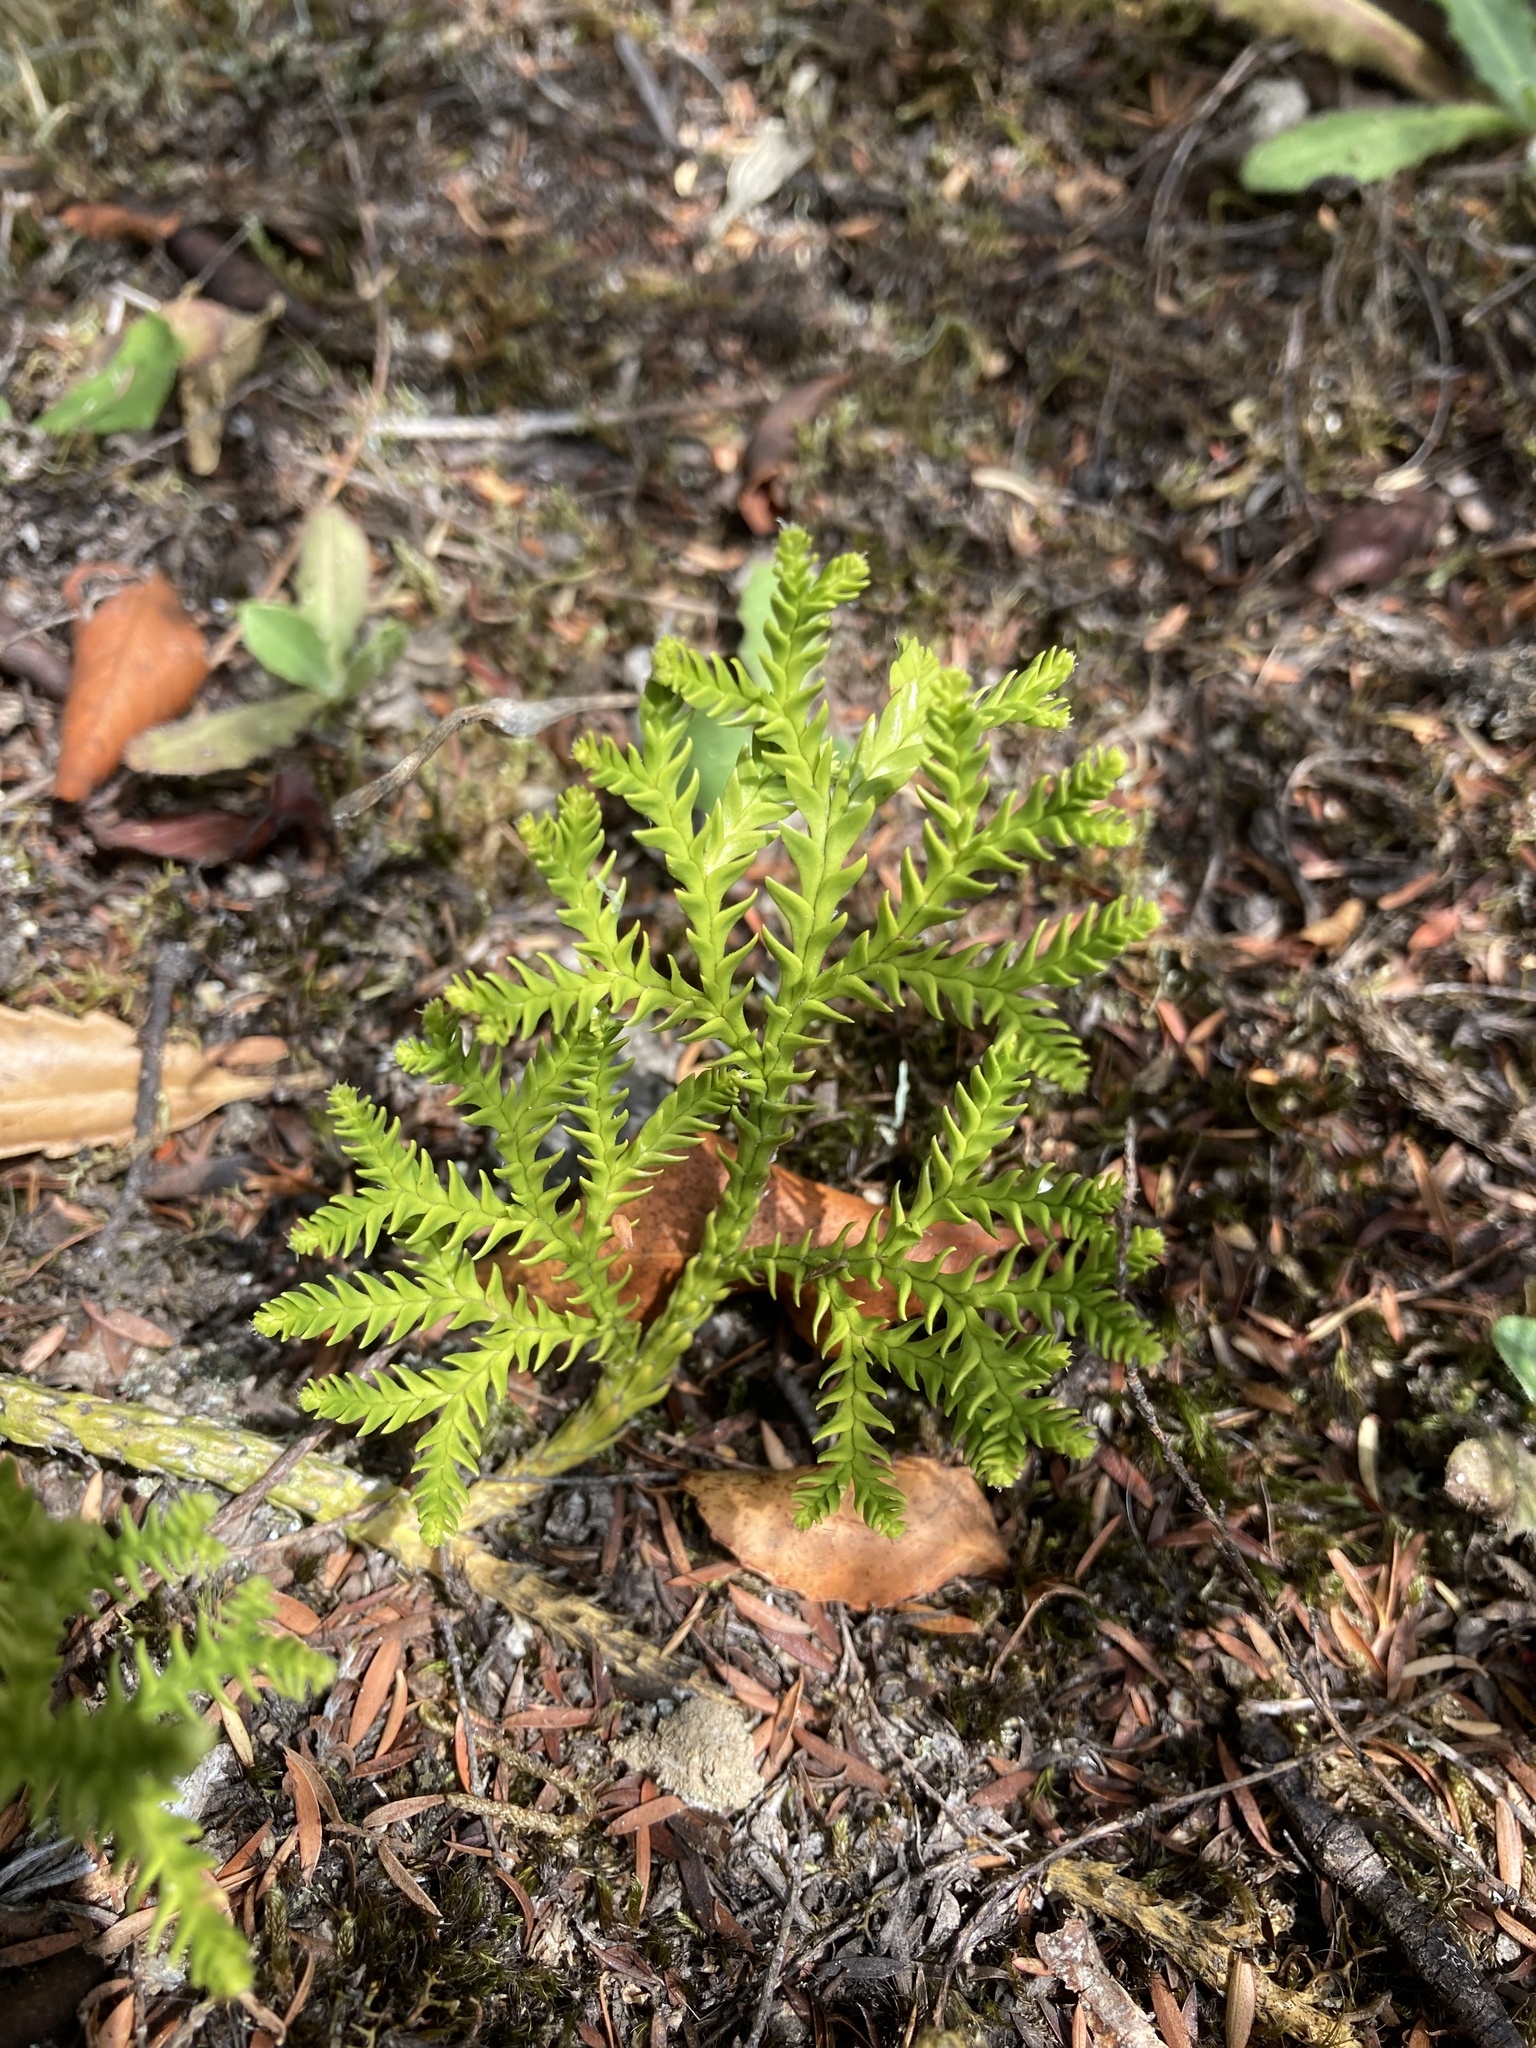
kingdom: Plantae
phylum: Tracheophyta
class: Lycopodiopsida
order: Lycopodiales
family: Lycopodiaceae
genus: Diphasium
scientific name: Diphasium scariosum
